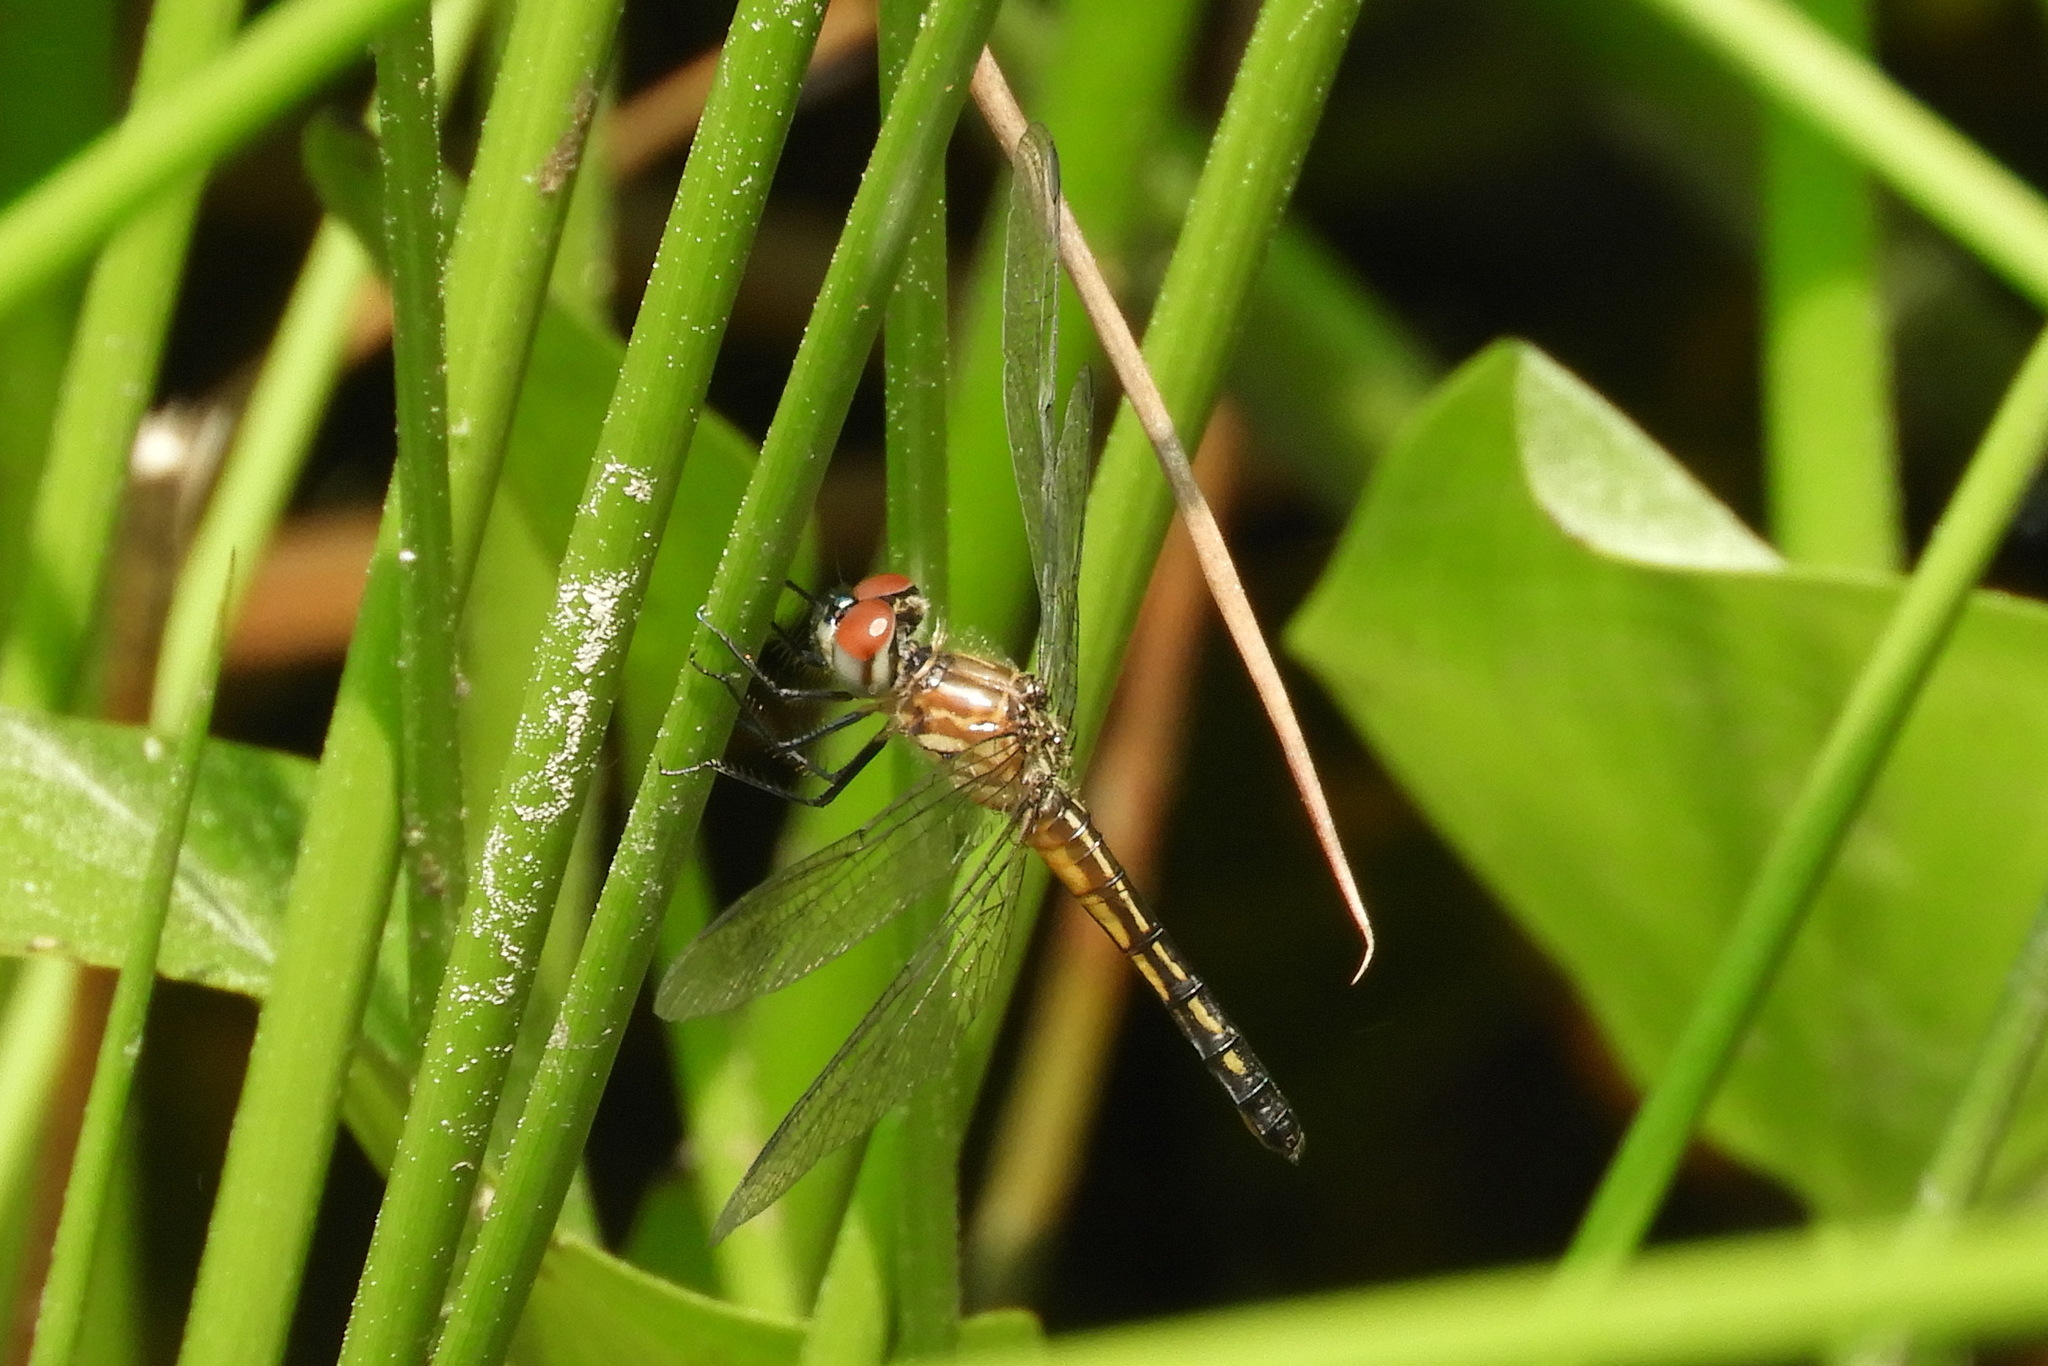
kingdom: Animalia
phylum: Arthropoda
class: Insecta
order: Odonata
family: Libellulidae
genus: Pachydiplax
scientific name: Pachydiplax longipennis
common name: Blue dasher
